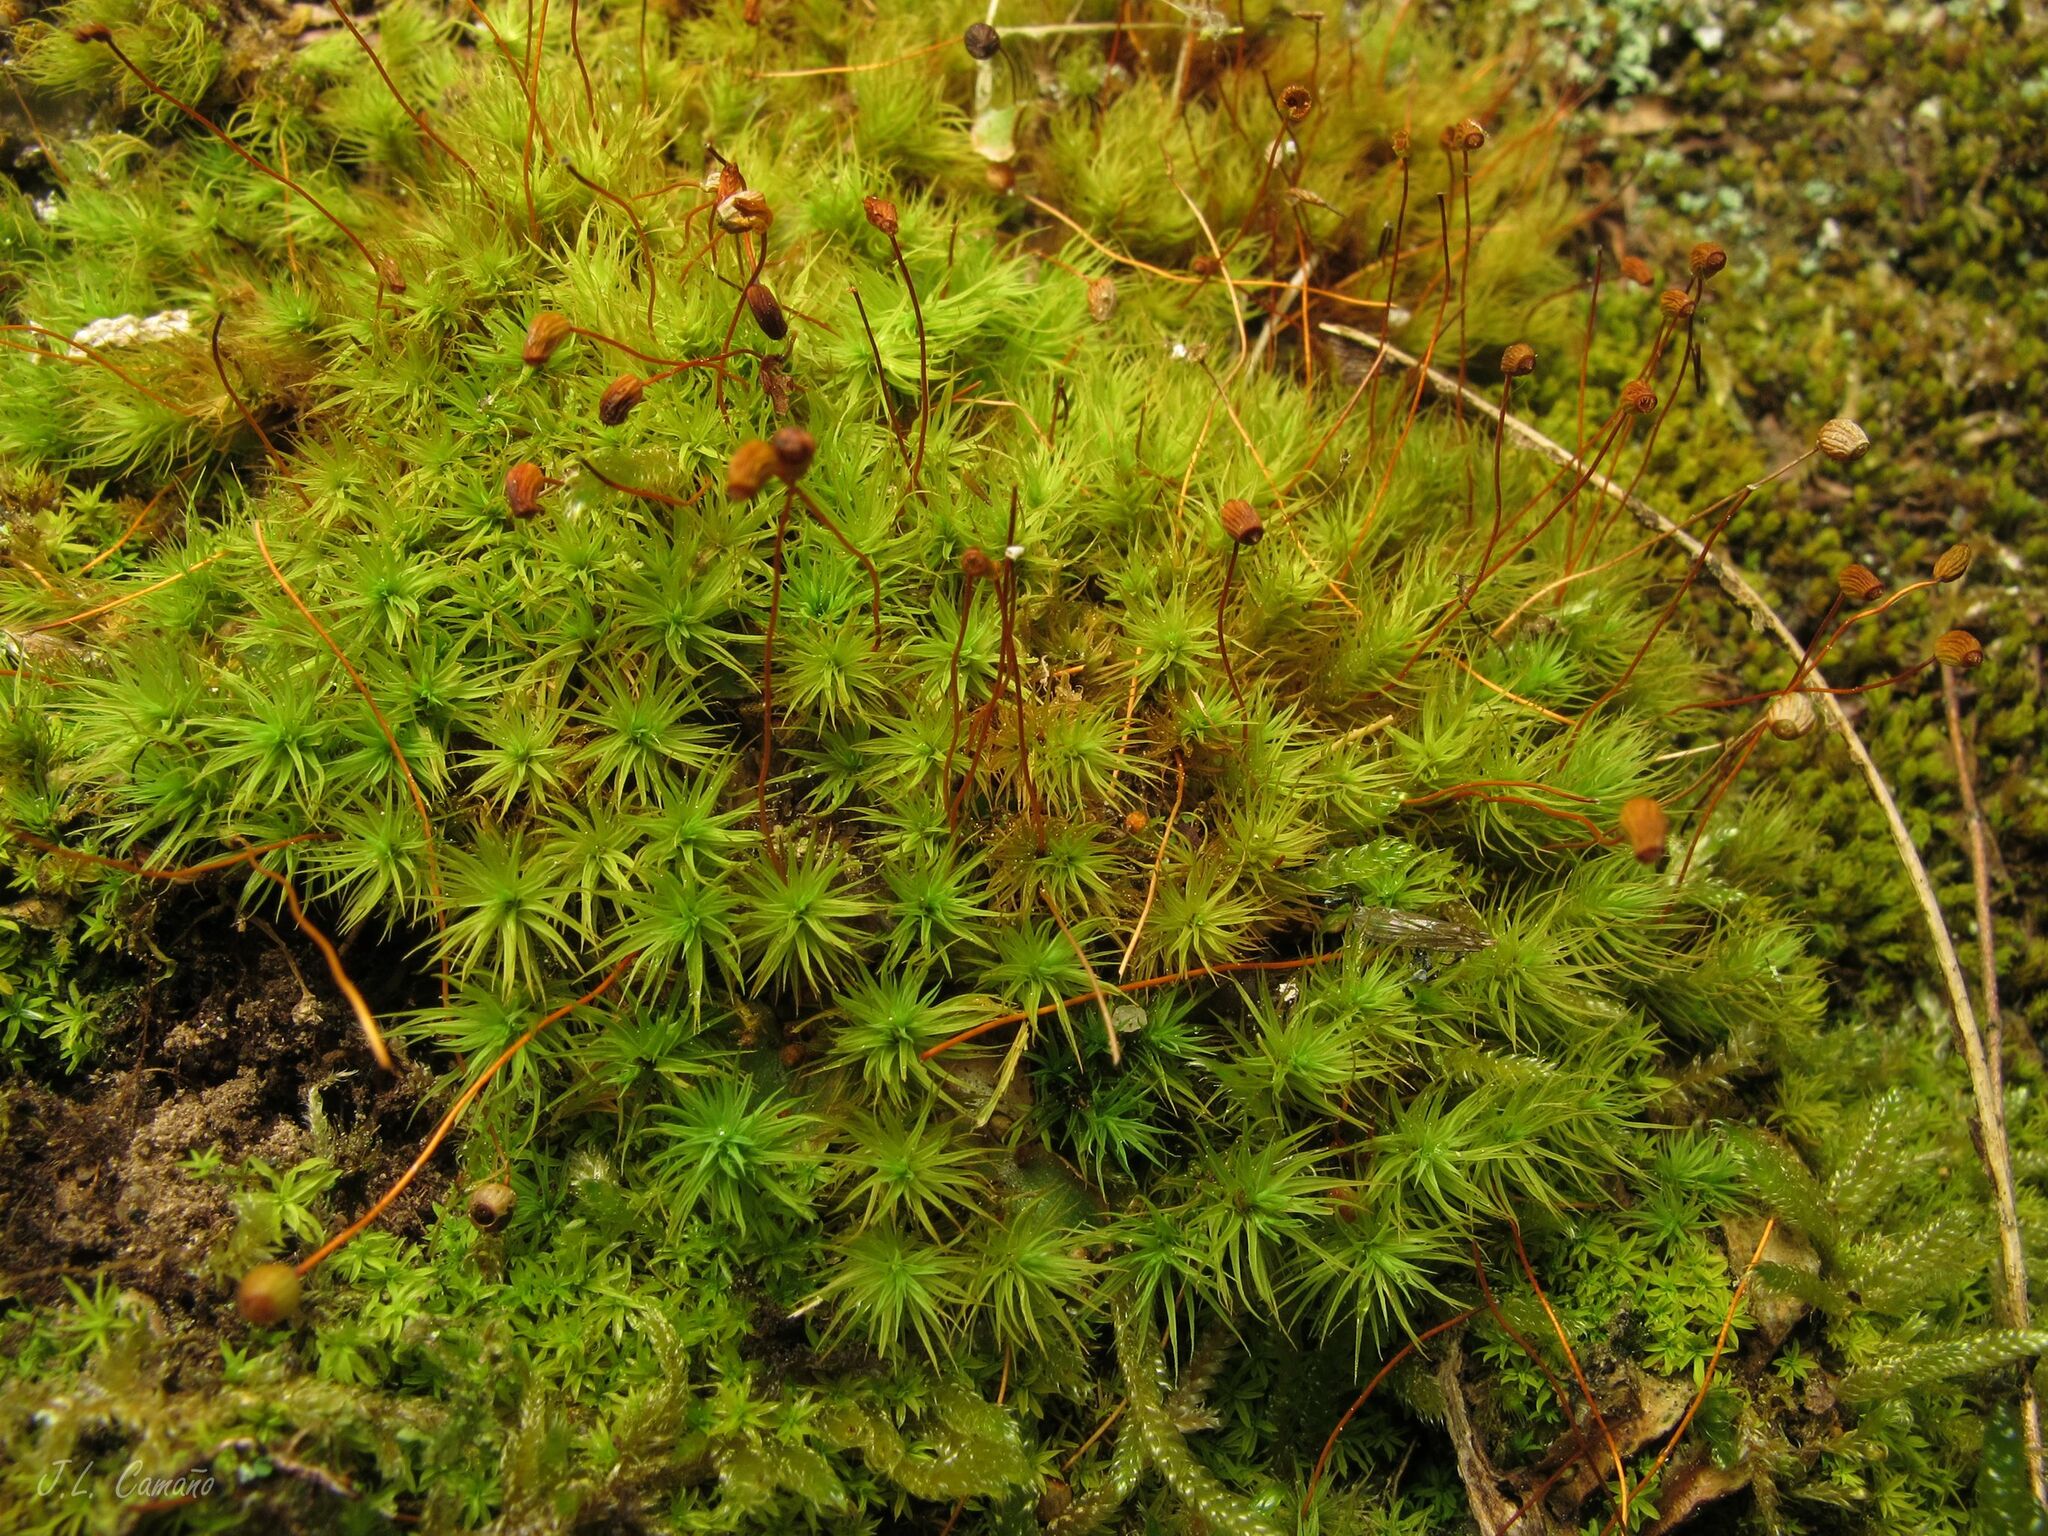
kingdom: Plantae
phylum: Bryophyta
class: Bryopsida
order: Bartramiales
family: Bartramiaceae
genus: Bartramia
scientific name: Bartramia ithyphylla
